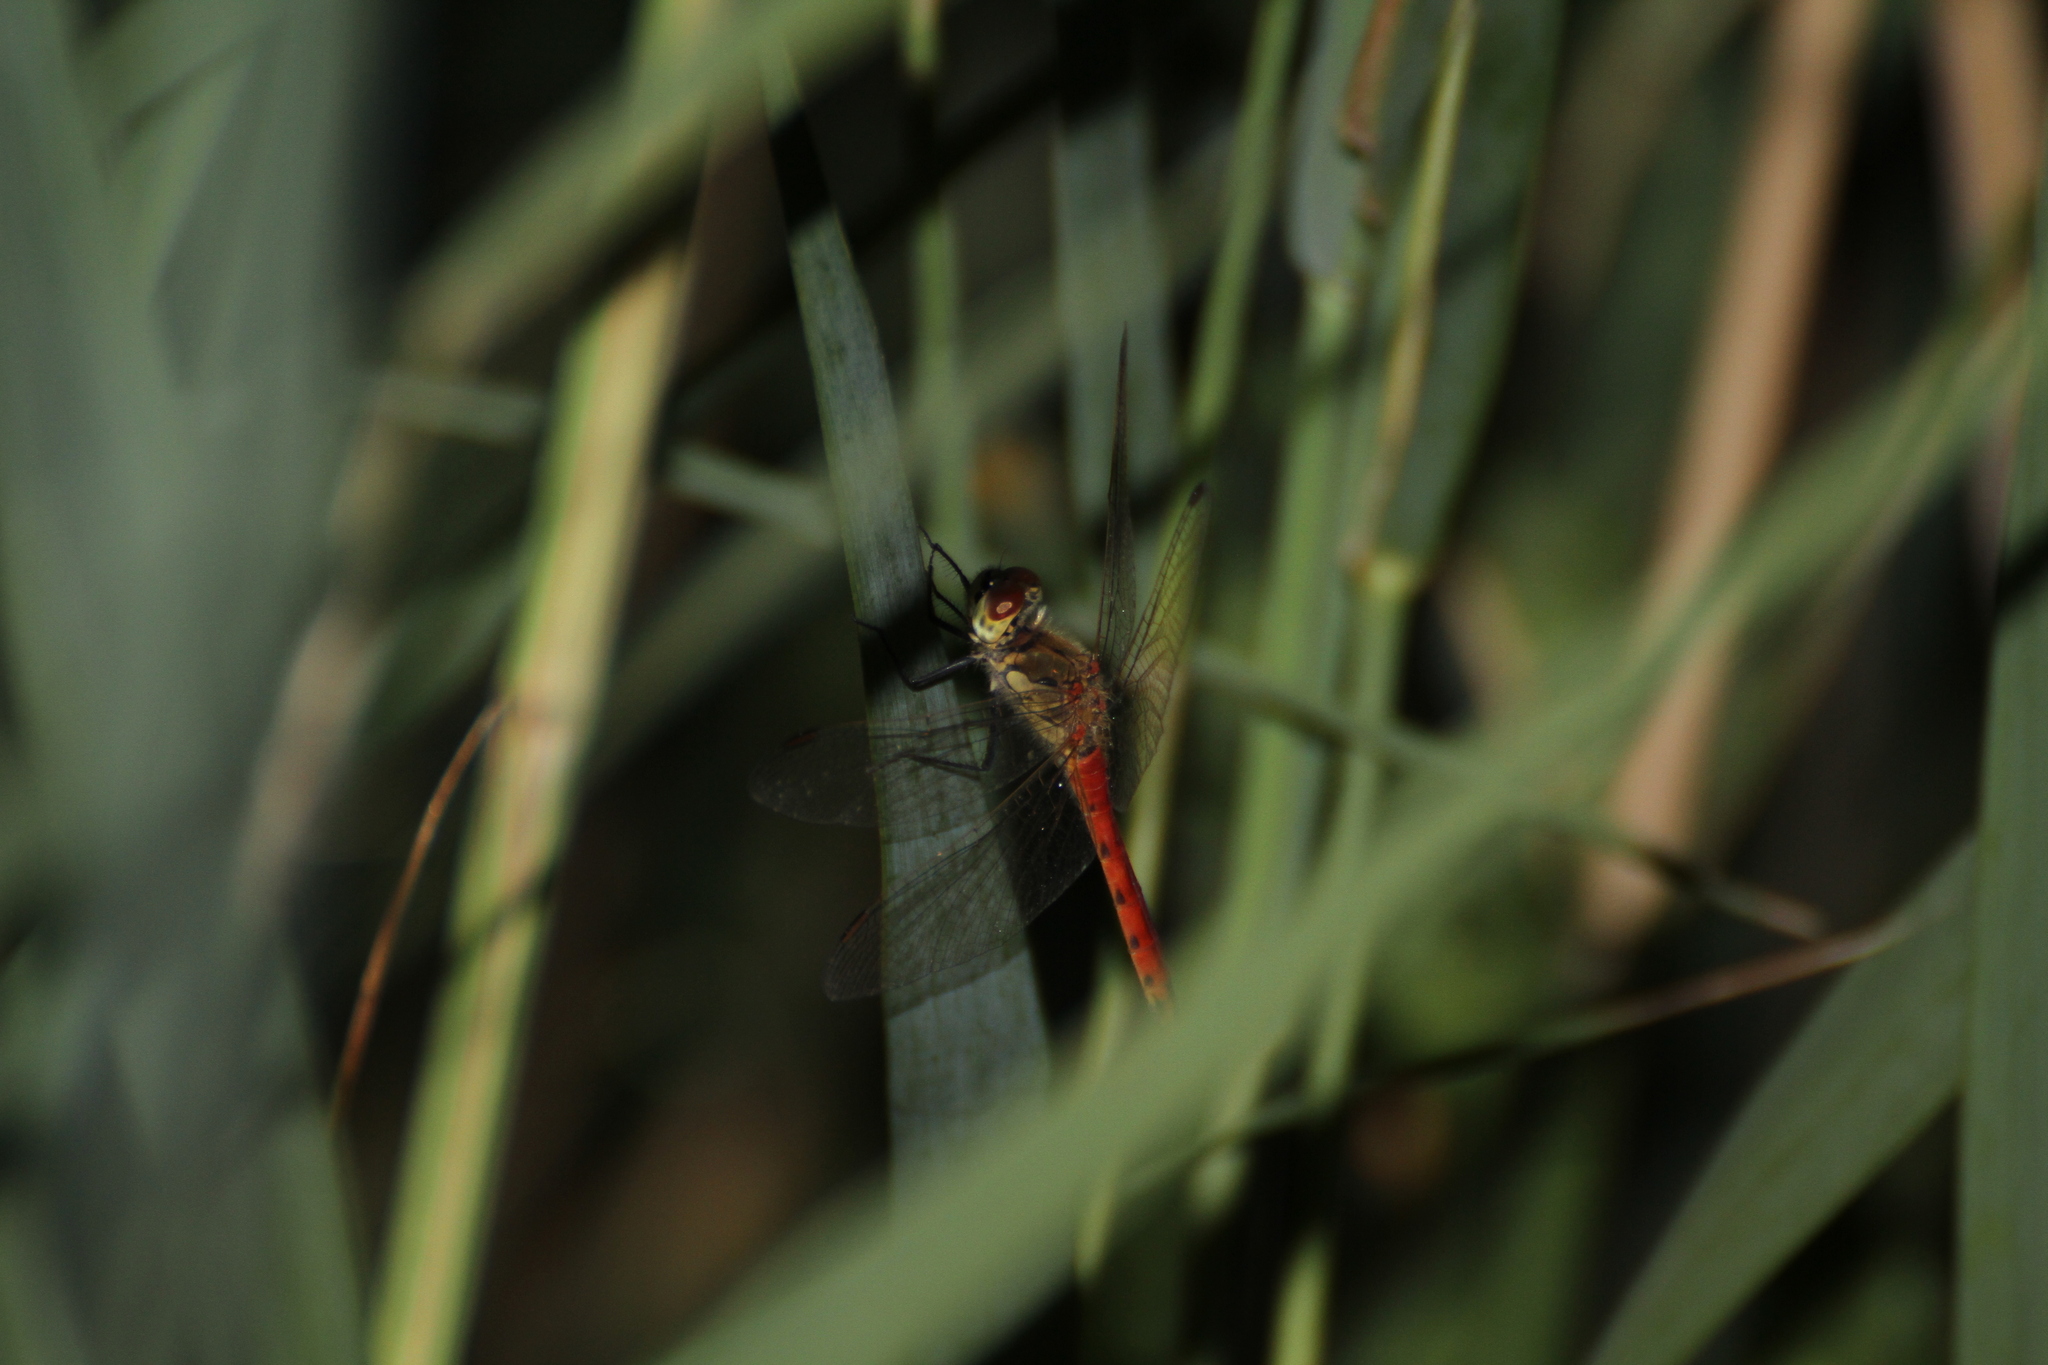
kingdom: Animalia
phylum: Arthropoda
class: Insecta
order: Odonata
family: Libellulidae
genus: Sympetrum
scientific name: Sympetrum depressiusculum
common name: Spotted darter
